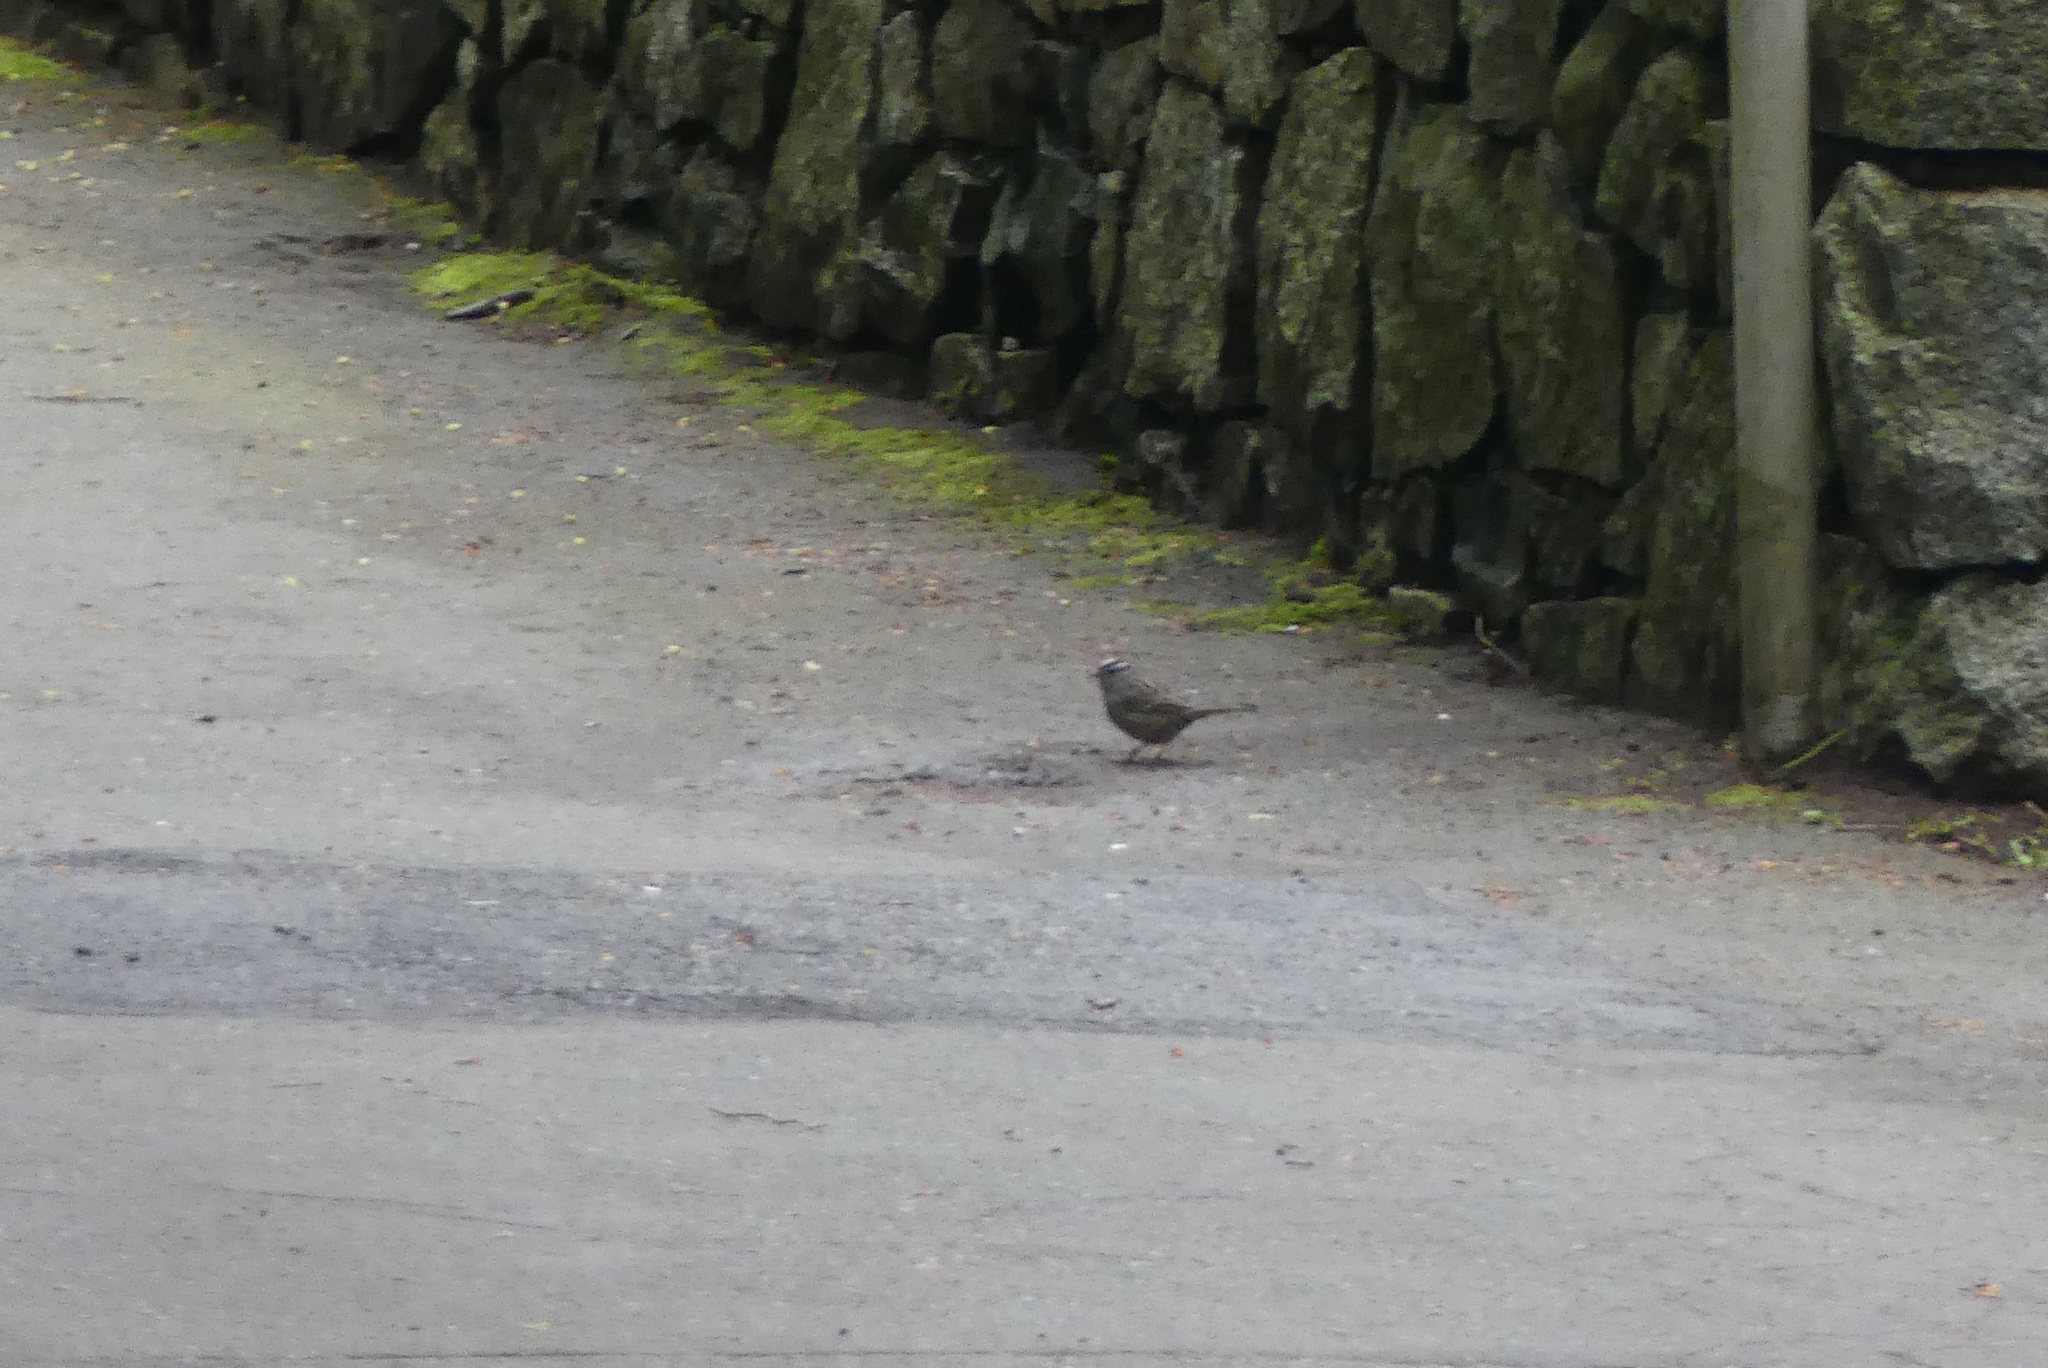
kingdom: Animalia
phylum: Chordata
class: Aves
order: Passeriformes
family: Passerellidae
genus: Zonotrichia
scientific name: Zonotrichia leucophrys
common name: White-crowned sparrow
